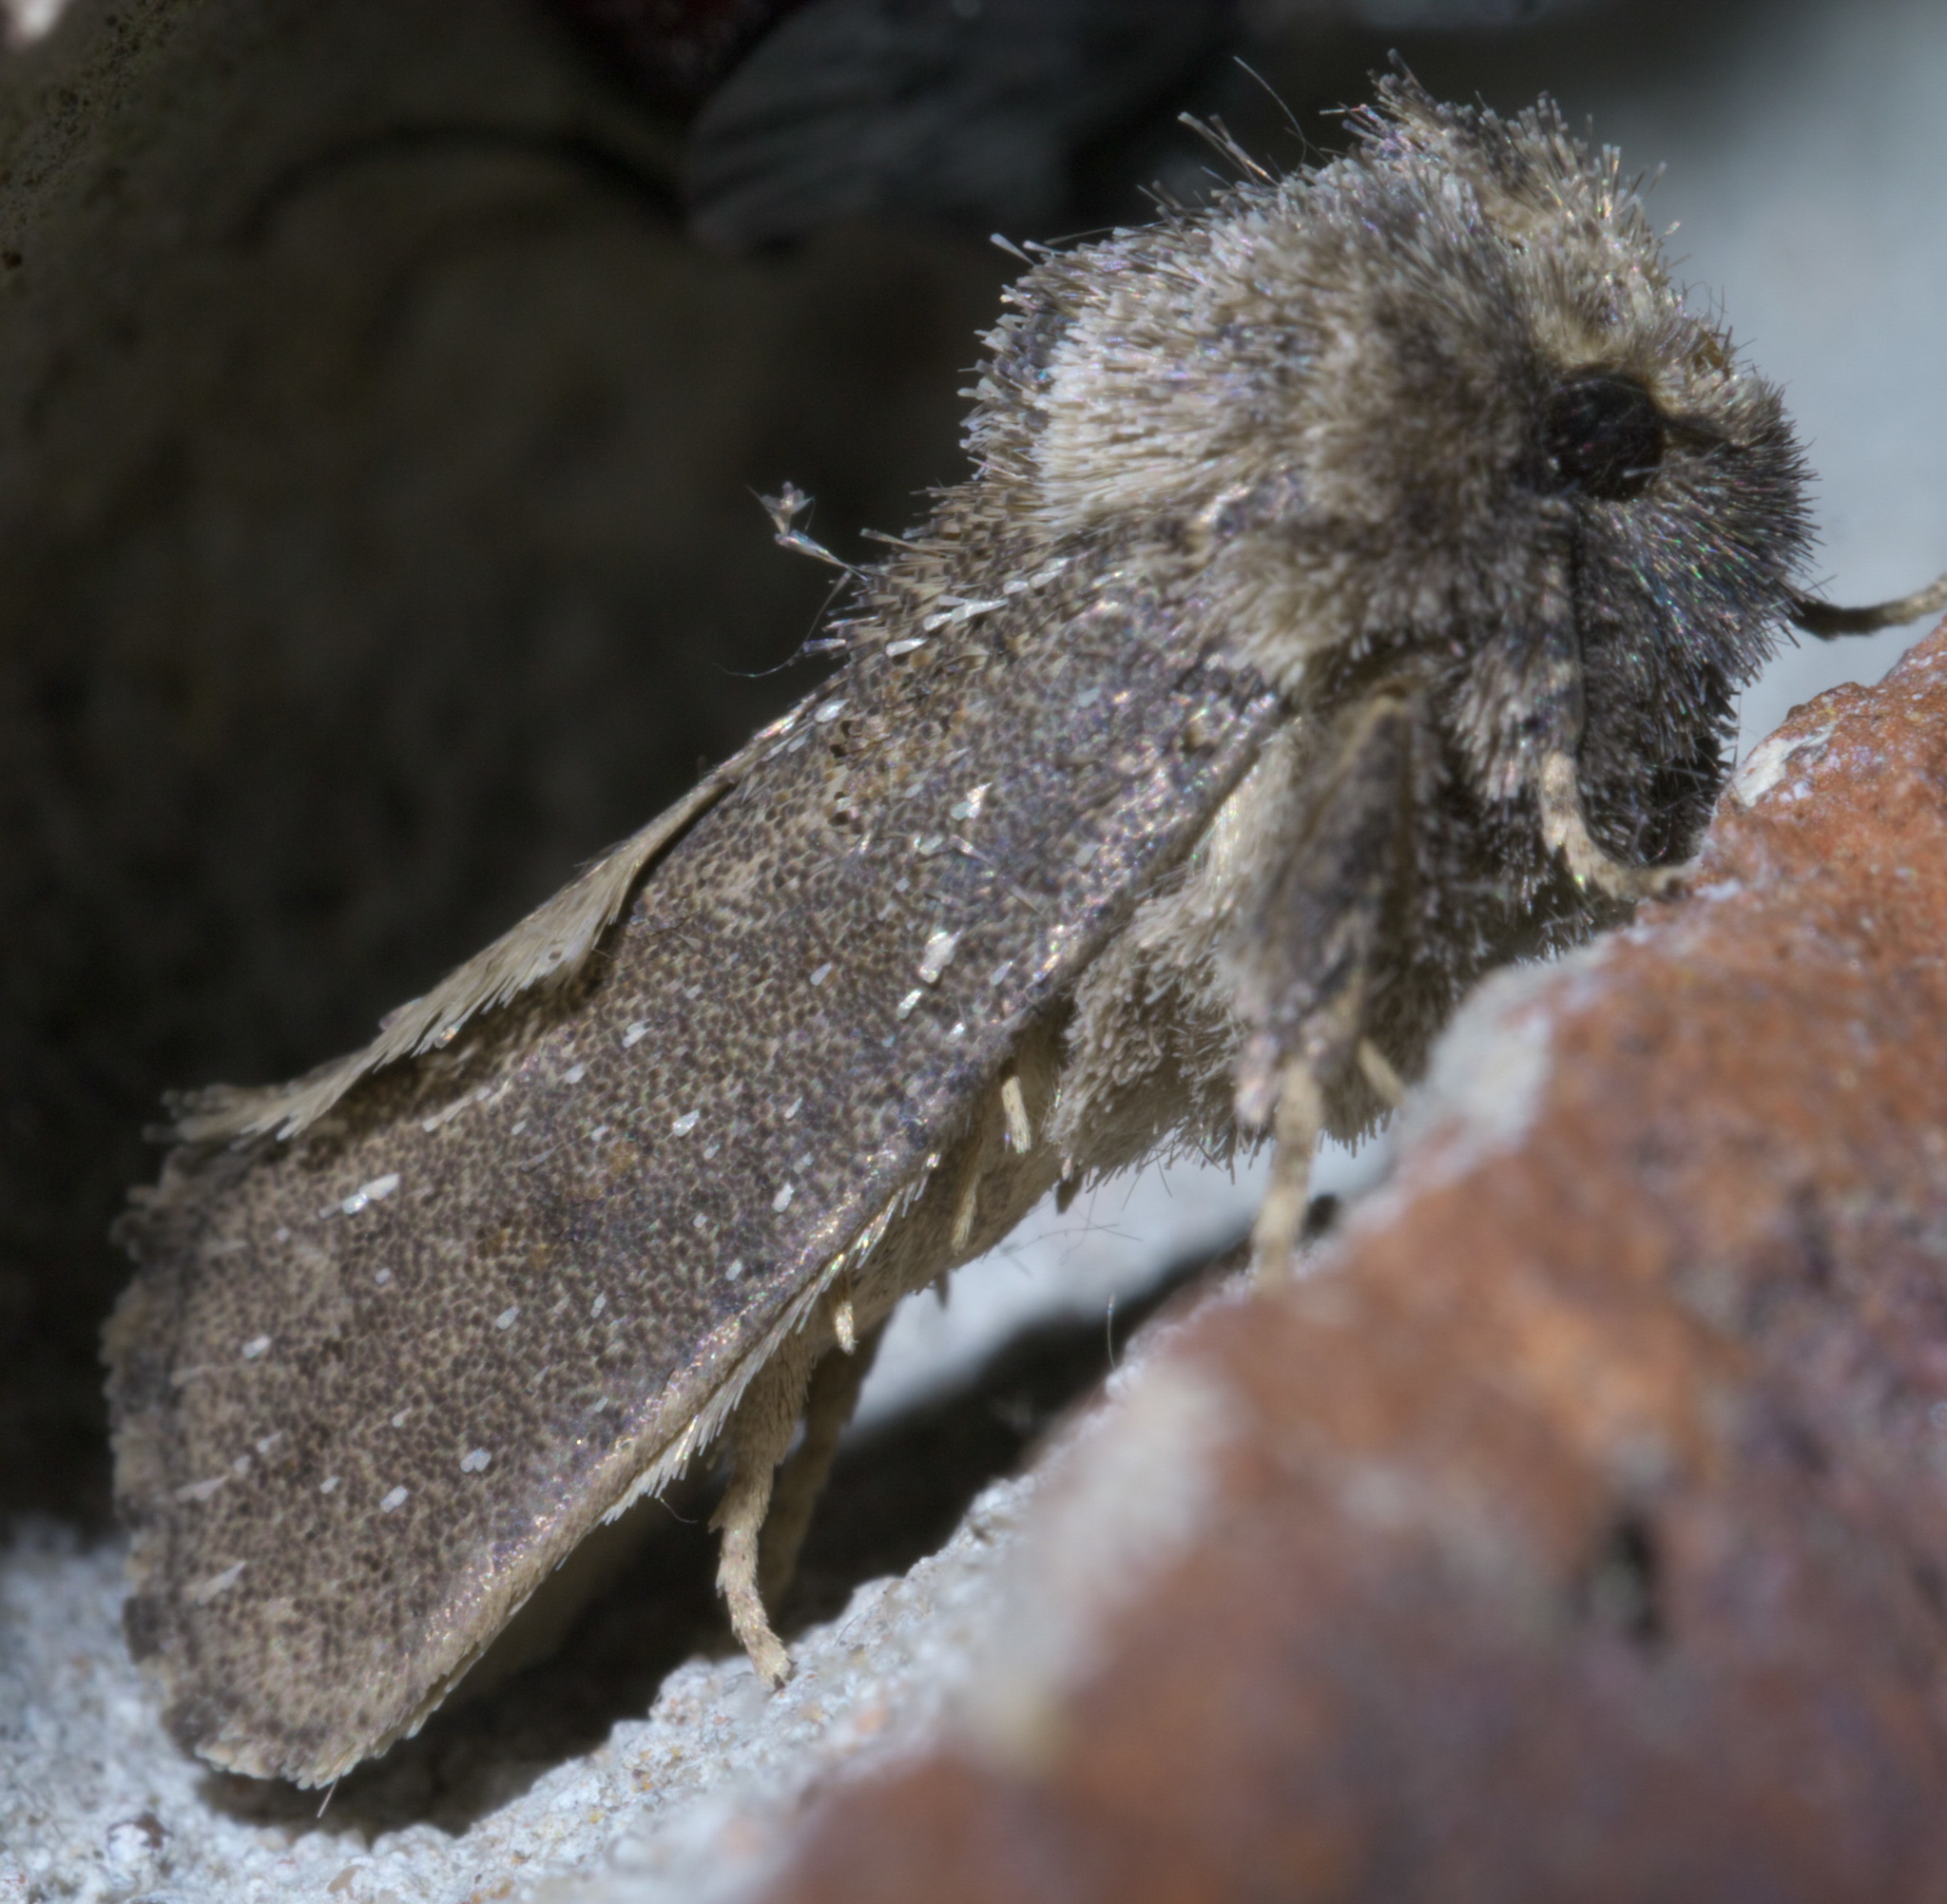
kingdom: Animalia
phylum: Arthropoda
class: Insecta
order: Lepidoptera
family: Tineidae
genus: Acrolophus
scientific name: Acrolophus arcanella
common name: Arcane grass tubeworm moth
